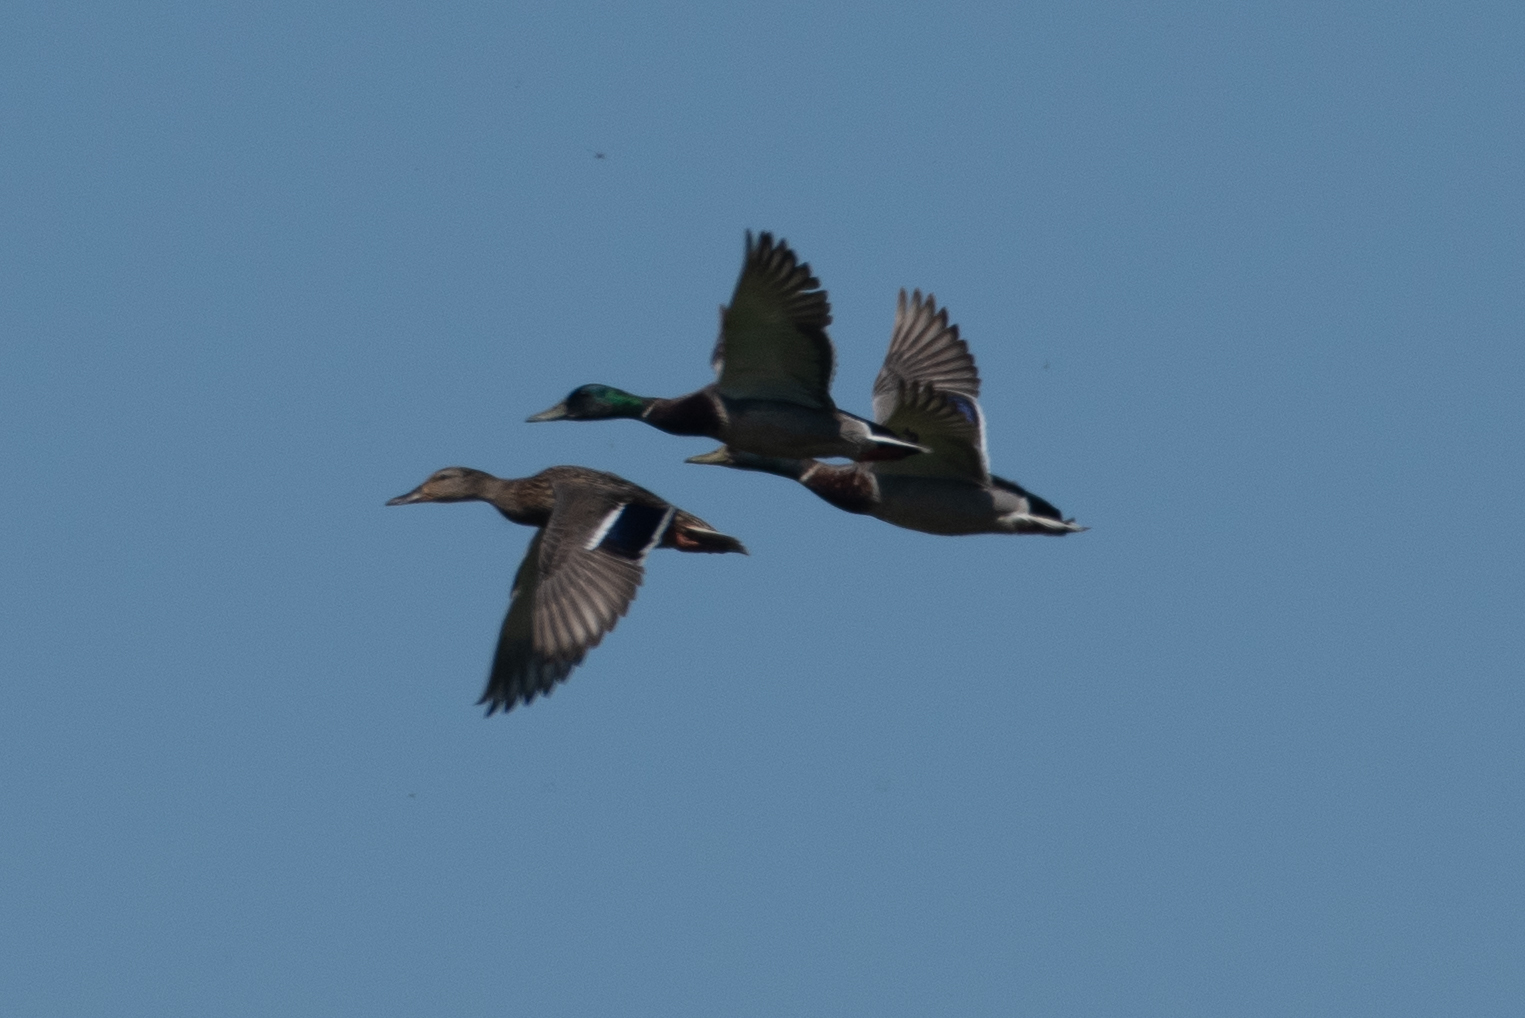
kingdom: Animalia
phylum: Chordata
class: Aves
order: Anseriformes
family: Anatidae
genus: Anas
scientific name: Anas platyrhynchos
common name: Mallard
